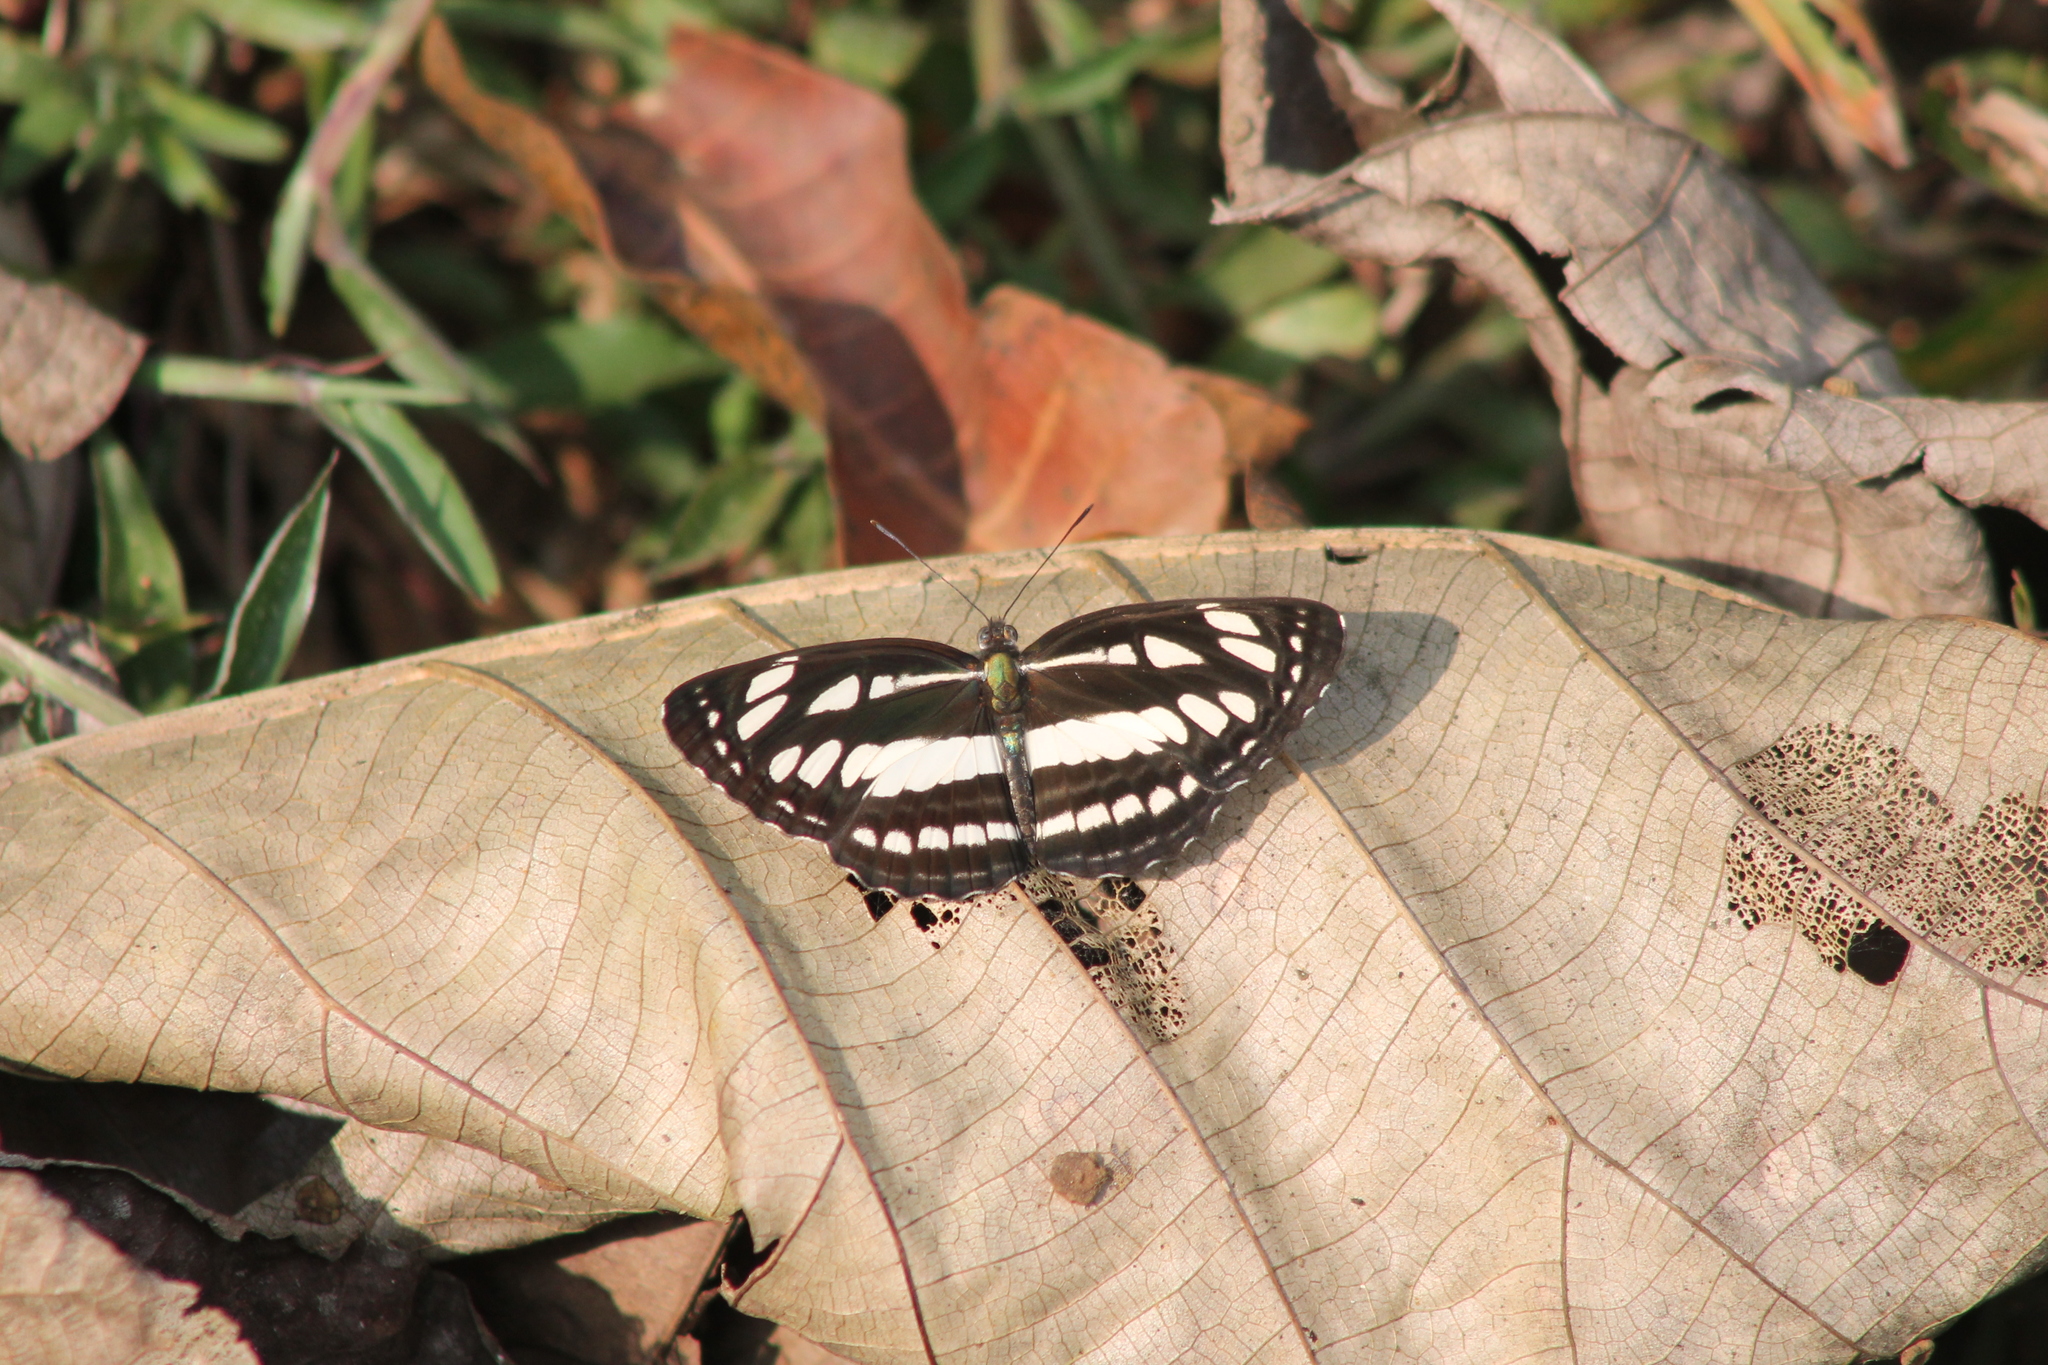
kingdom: Animalia
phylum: Arthropoda
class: Insecta
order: Lepidoptera
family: Nymphalidae
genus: Neptis
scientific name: Neptis hylas
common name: Common sailer
